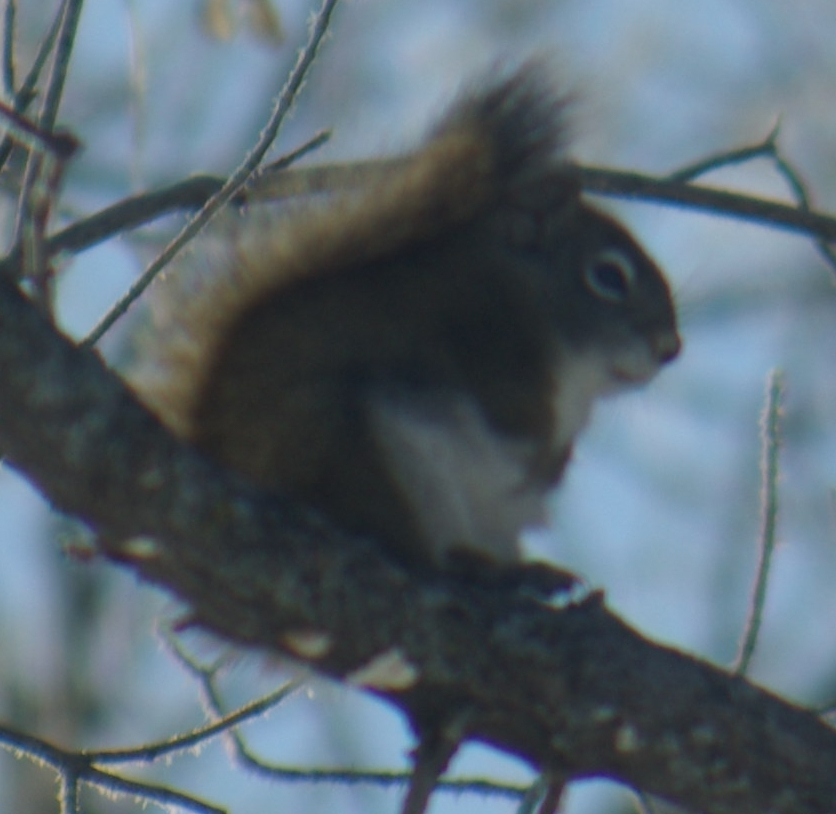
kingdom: Animalia
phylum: Chordata
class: Mammalia
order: Rodentia
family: Sciuridae
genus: Tamiasciurus
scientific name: Tamiasciurus hudsonicus
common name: Red squirrel
